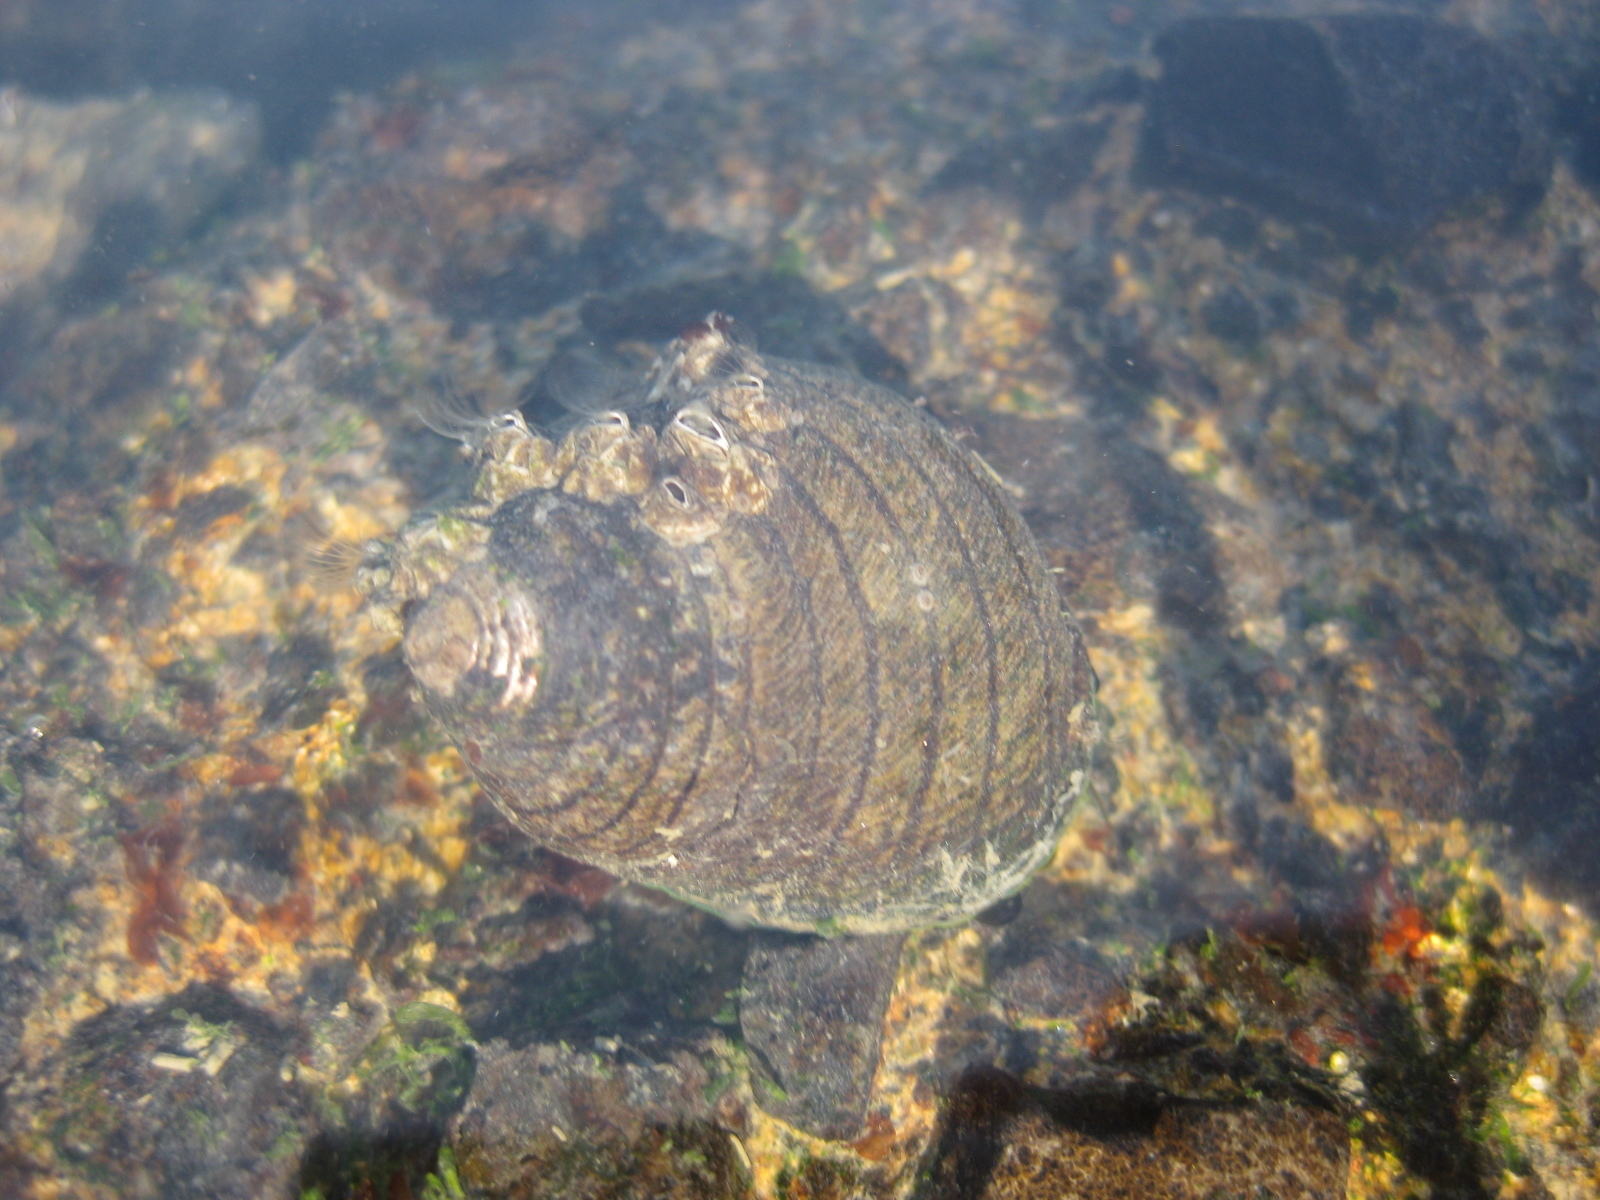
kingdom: Animalia
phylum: Mollusca
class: Gastropoda
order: Trochida
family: Trochidae
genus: Diloma
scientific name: Diloma aethiops
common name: Scorched monodont
